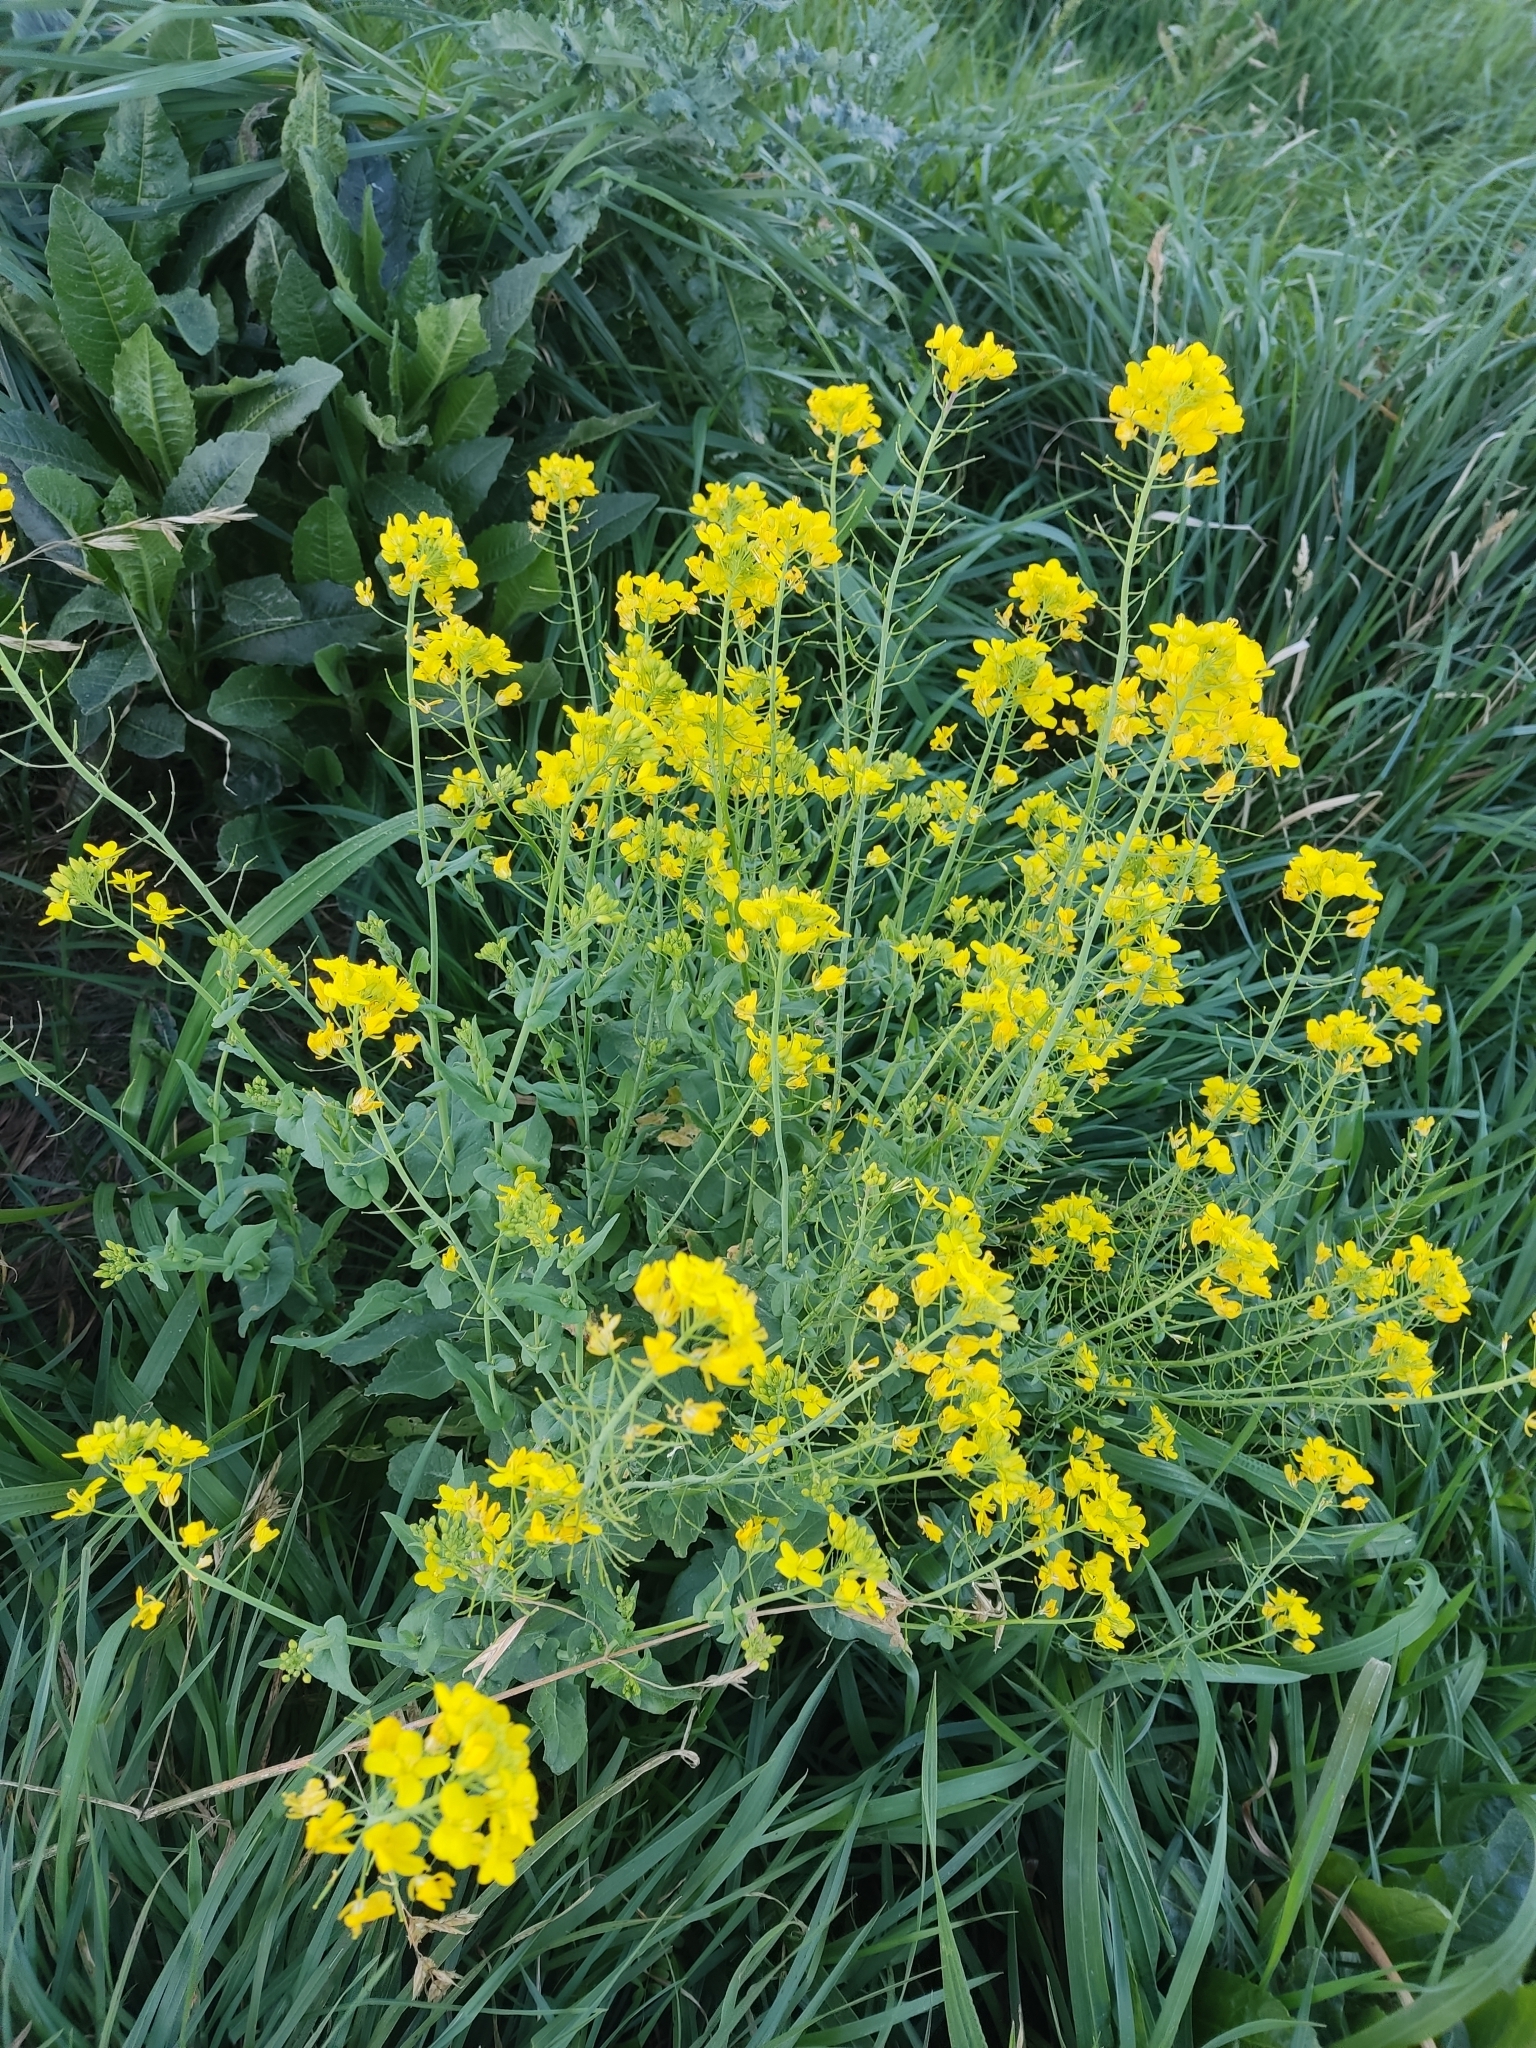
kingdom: Plantae
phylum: Tracheophyta
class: Magnoliopsida
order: Brassicales
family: Brassicaceae
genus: Brassica
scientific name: Brassica rapa
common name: Field mustard
